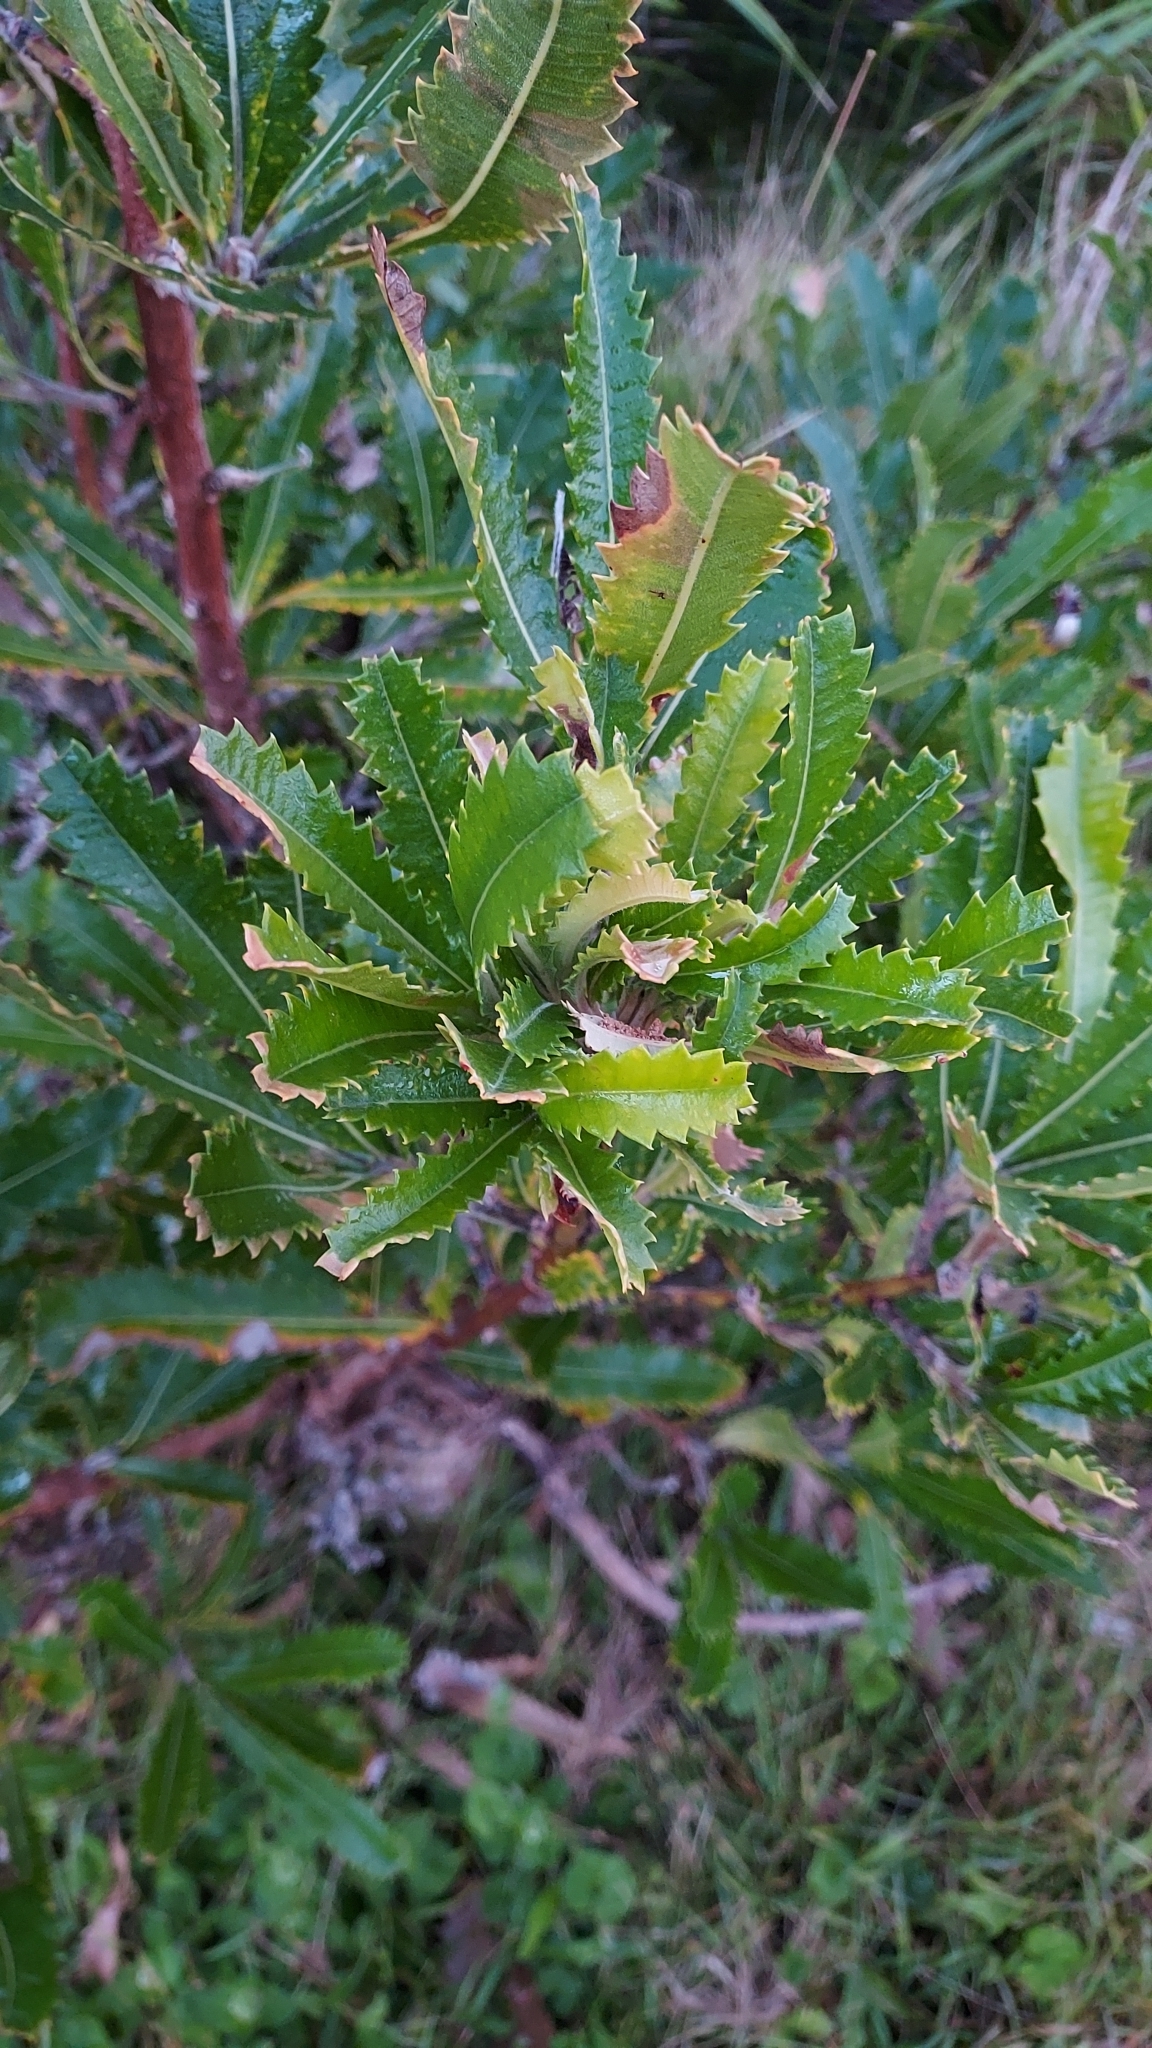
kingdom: Plantae
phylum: Tracheophyta
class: Magnoliopsida
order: Proteales
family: Proteaceae
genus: Banksia
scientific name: Banksia serrata
